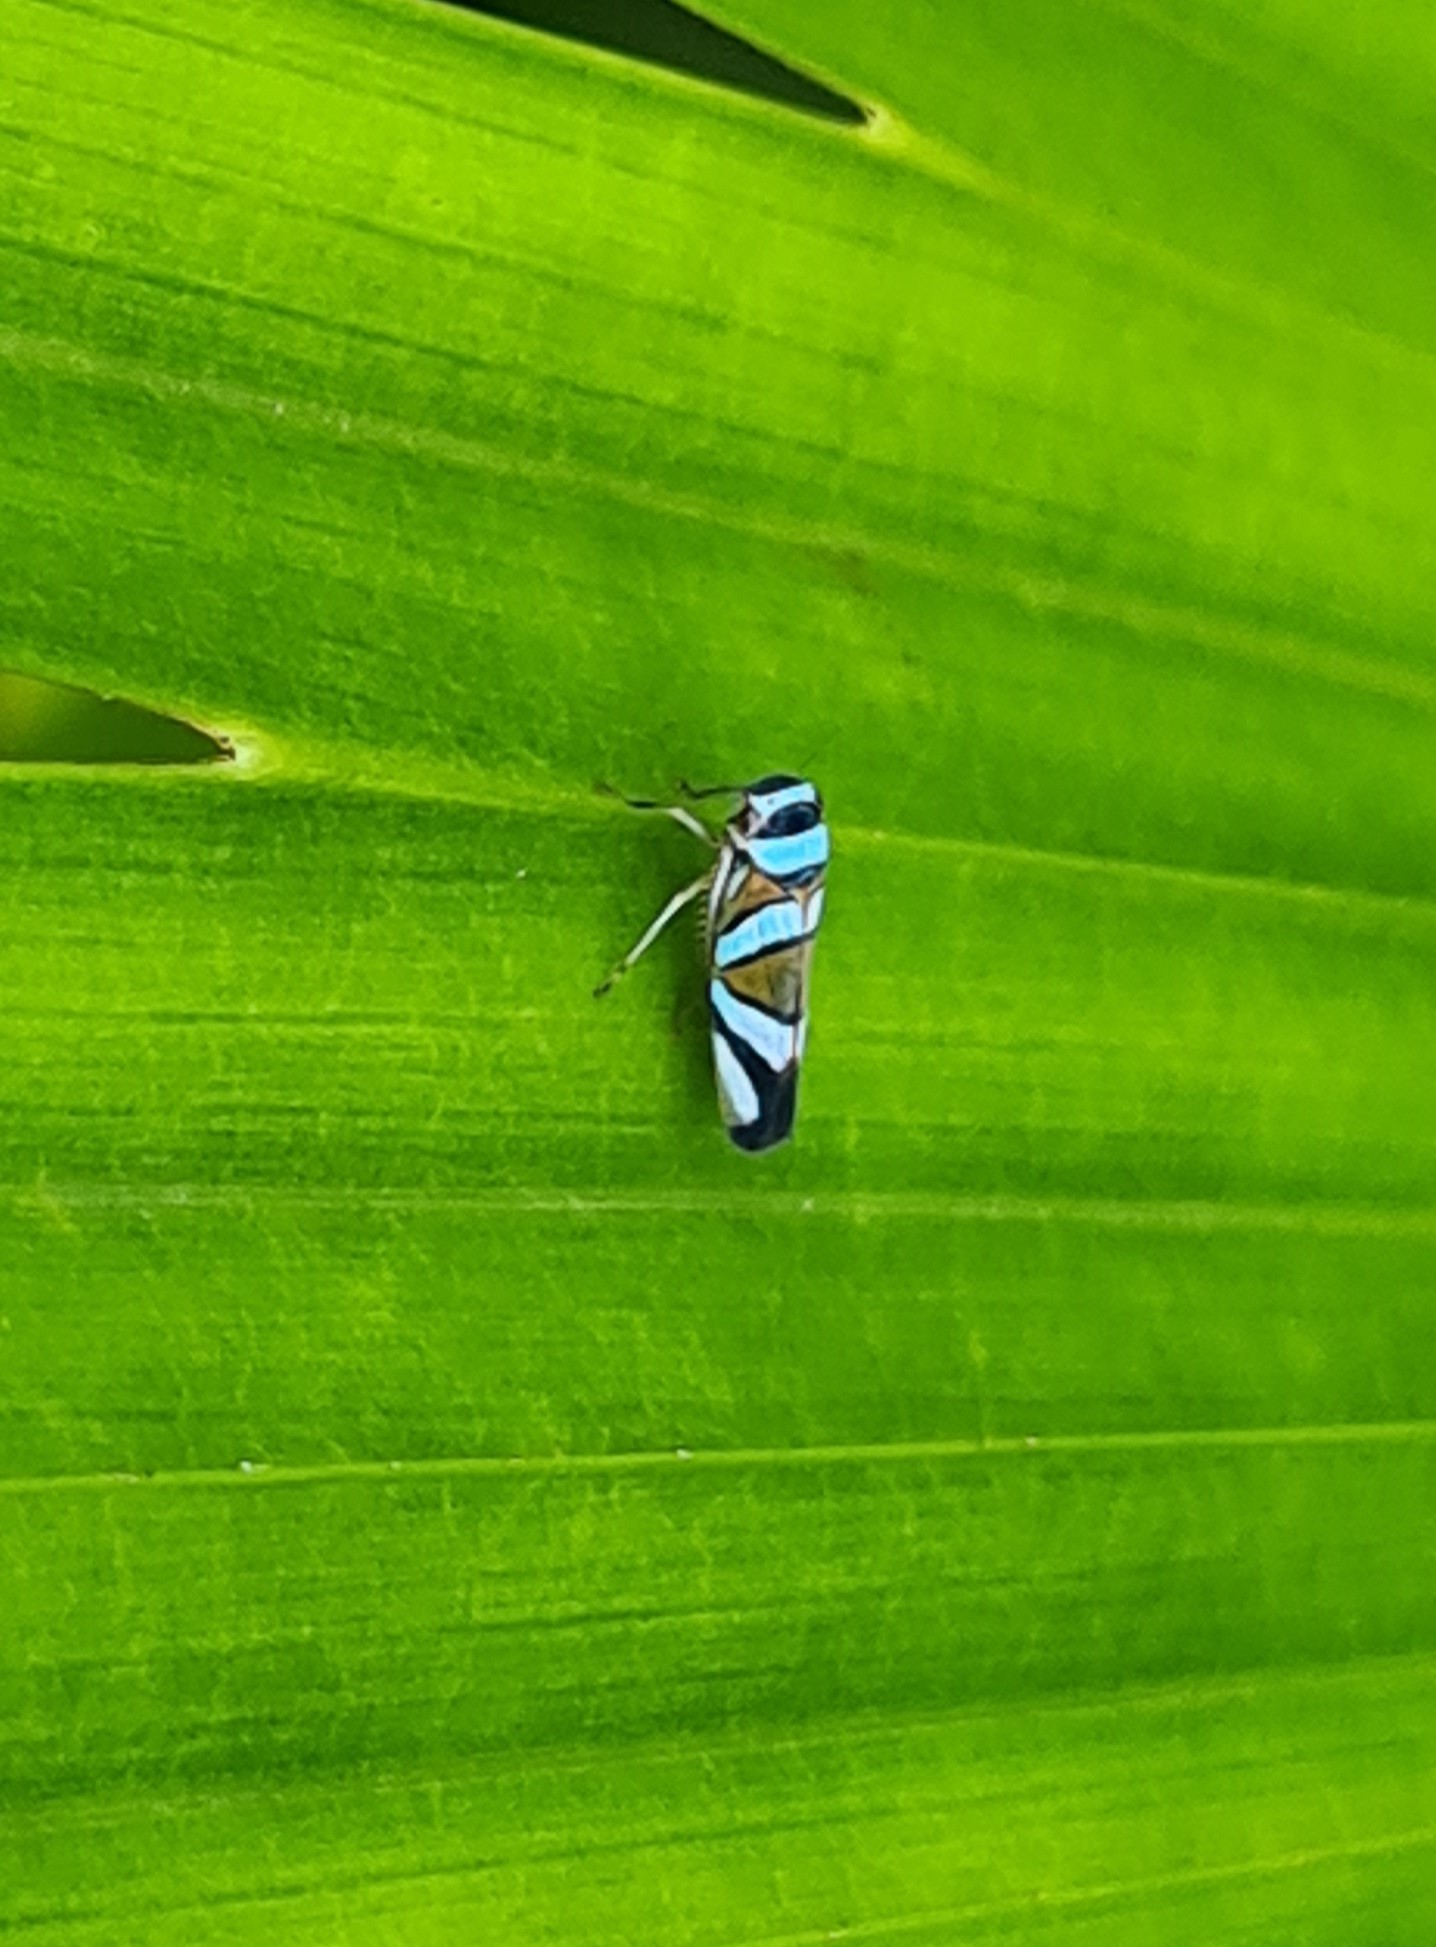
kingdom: Animalia
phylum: Arthropoda
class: Insecta
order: Hemiptera
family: Cicadellidae
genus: Macugonalia
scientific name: Macugonalia moesta
